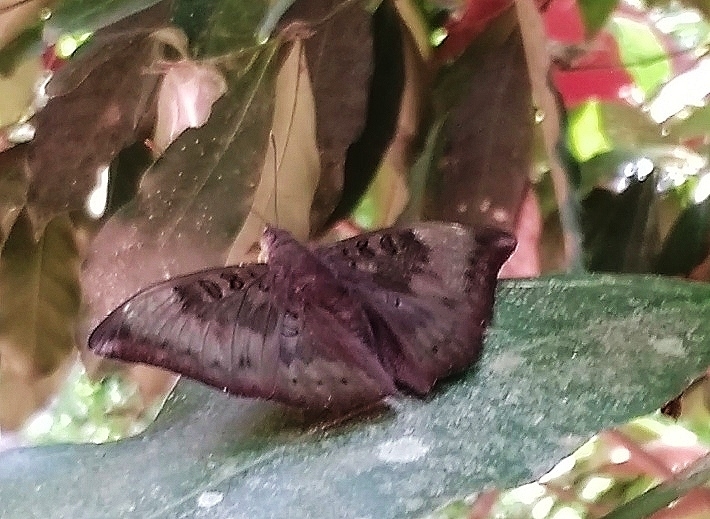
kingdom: Animalia
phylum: Arthropoda
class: Insecta
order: Lepidoptera
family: Nymphalidae
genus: Euthalia
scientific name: Euthalia aconthea
